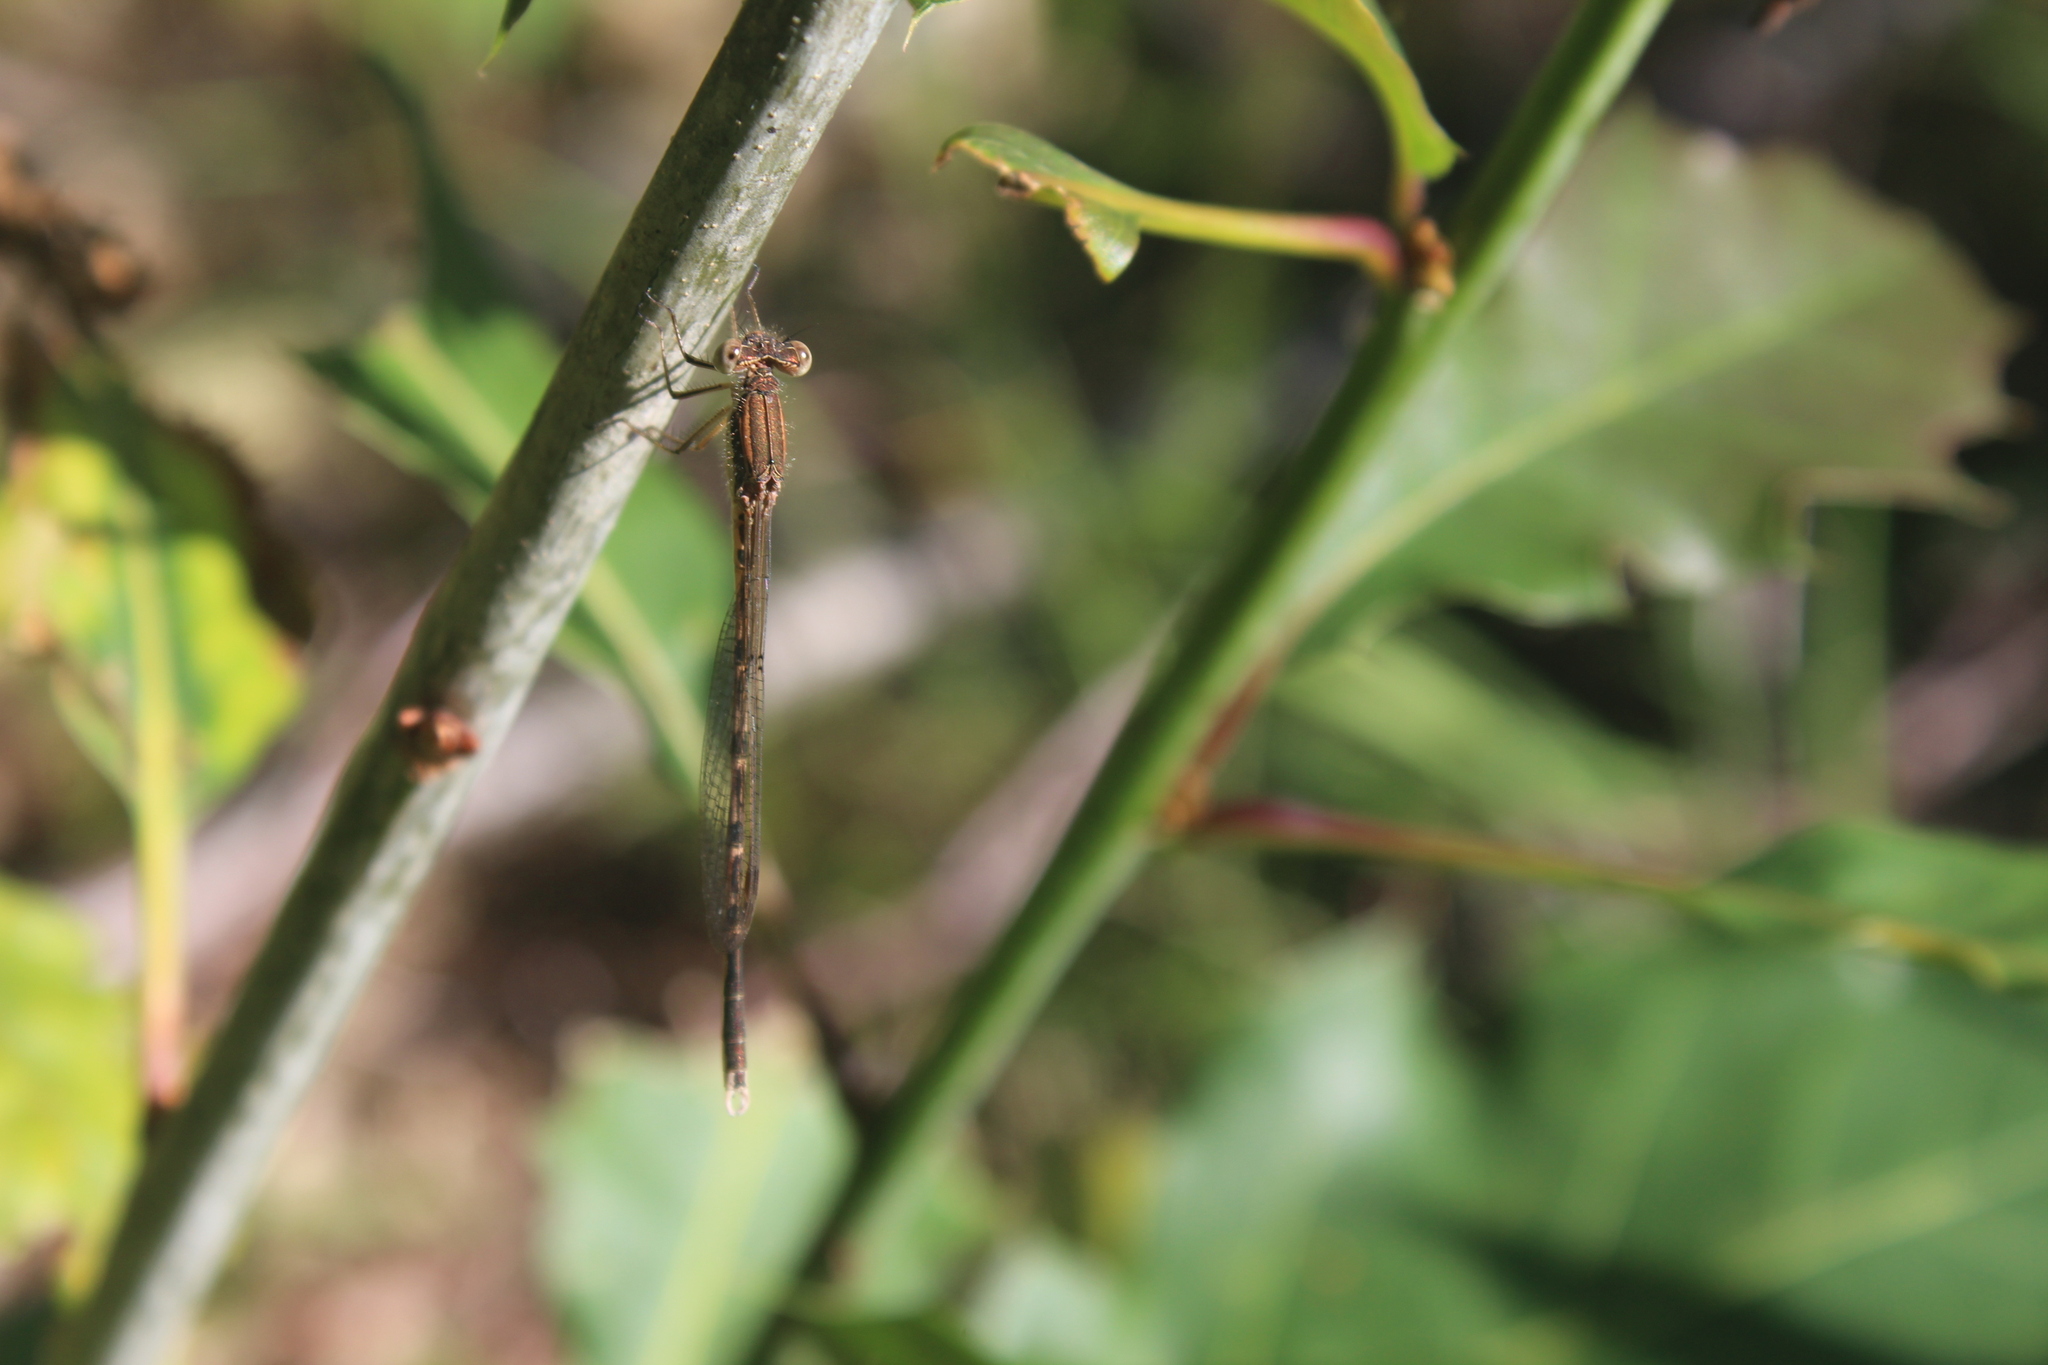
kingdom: Animalia
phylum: Arthropoda
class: Insecta
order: Odonata
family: Lestidae
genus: Sympecma
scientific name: Sympecma fusca
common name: Common winter damsel
